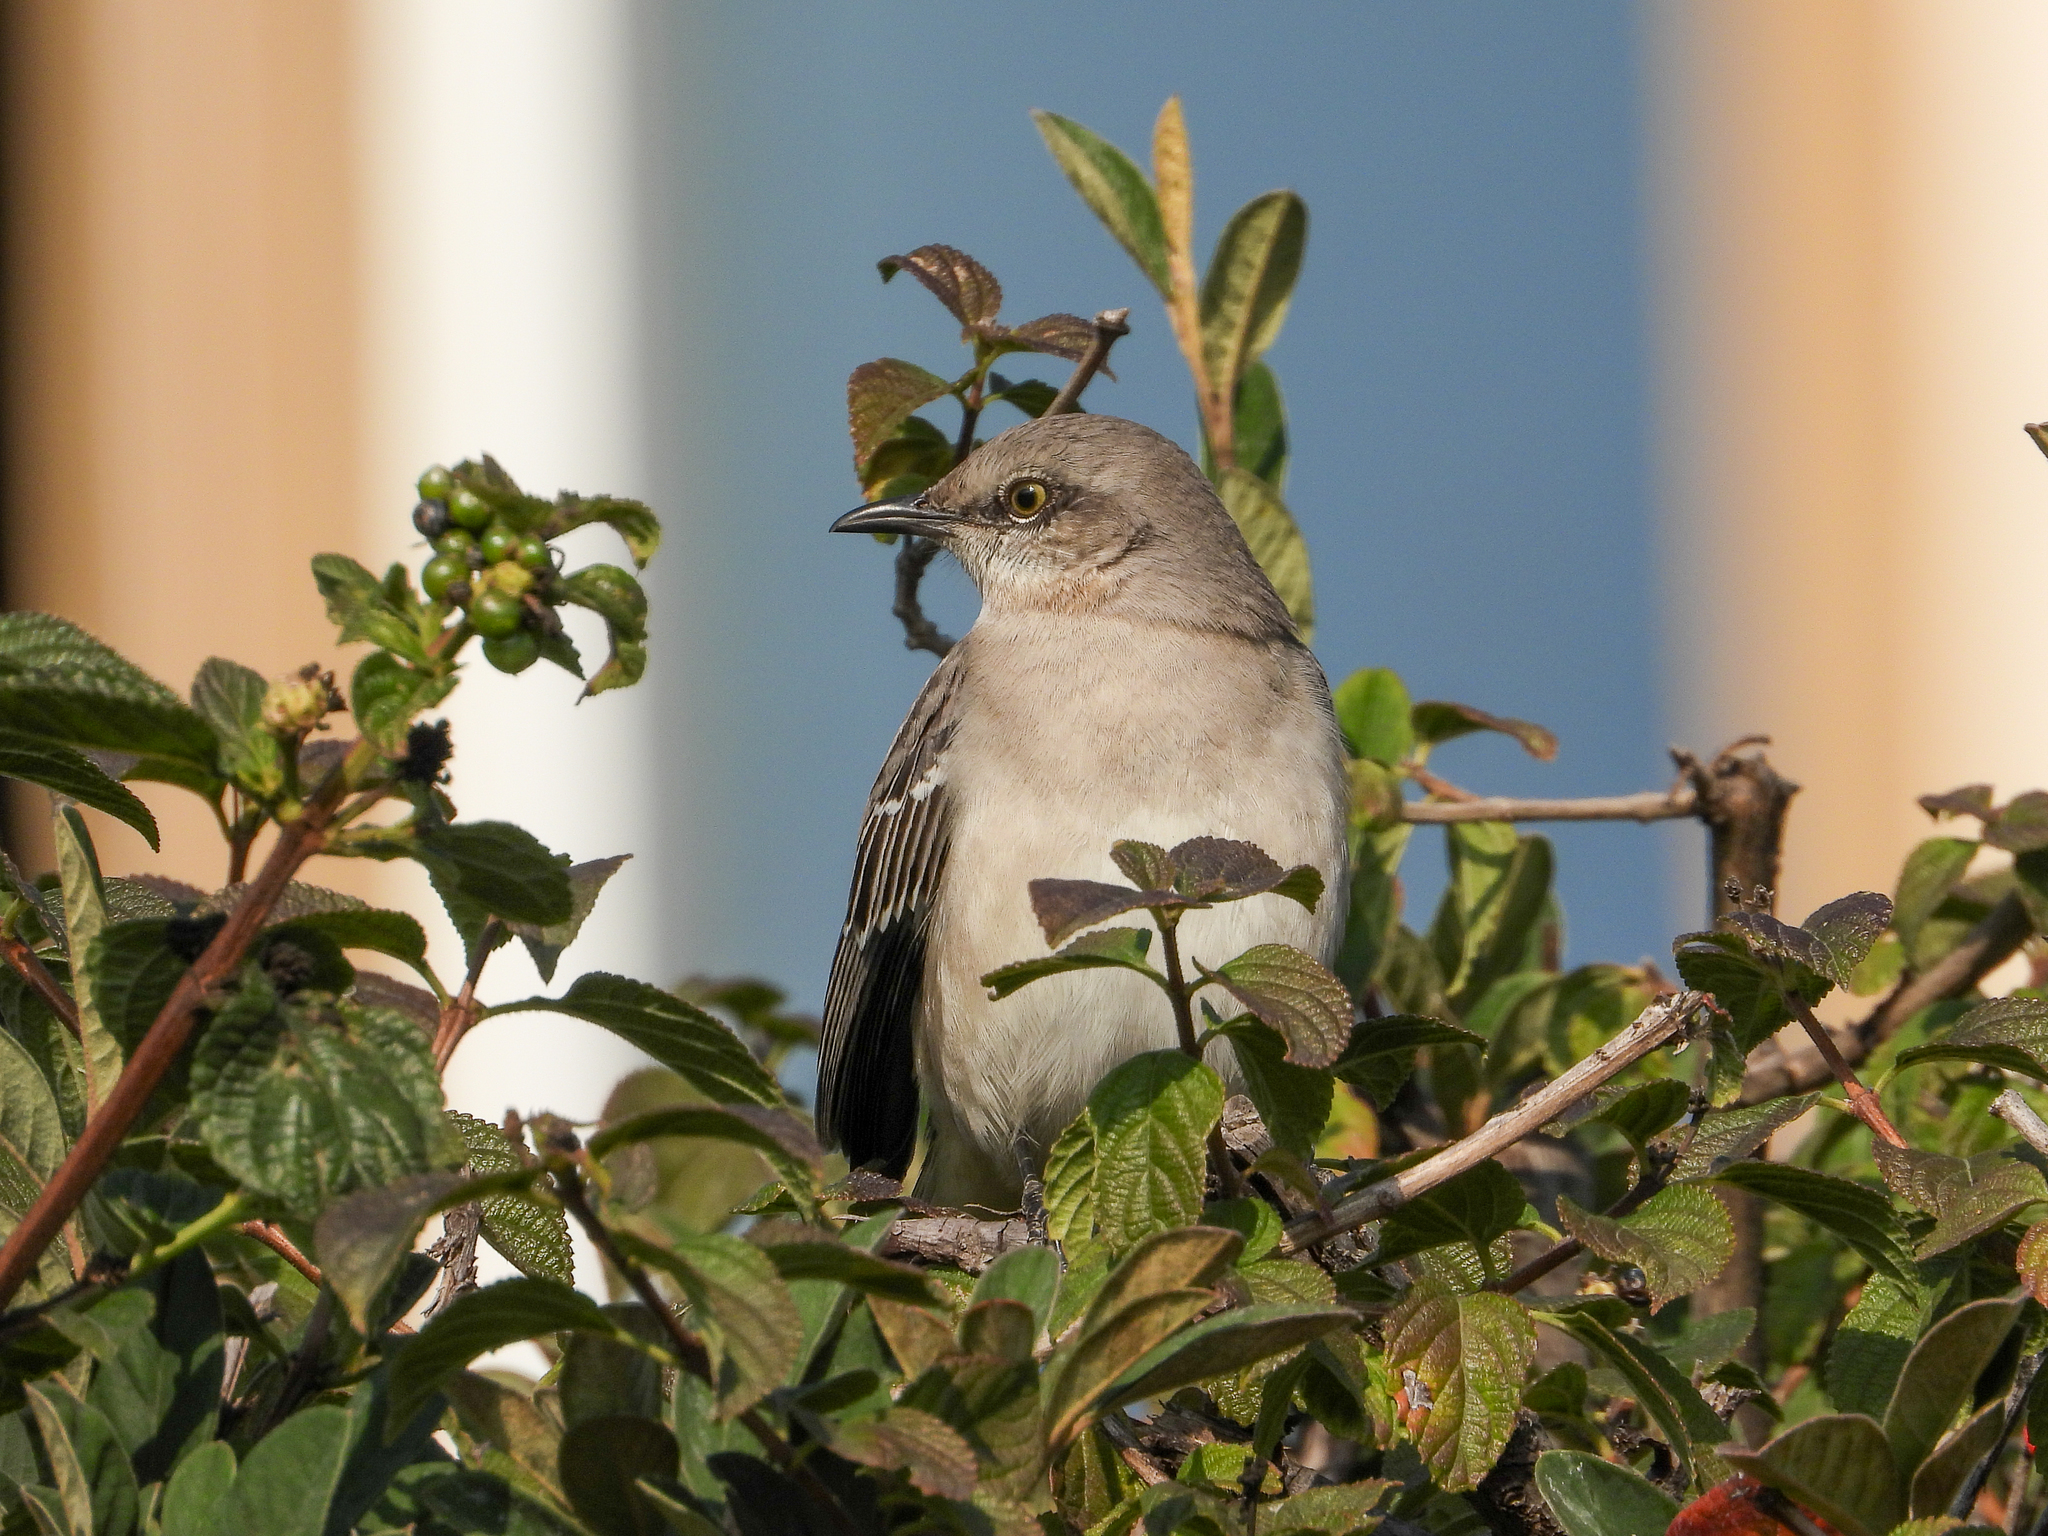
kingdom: Animalia
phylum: Chordata
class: Aves
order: Passeriformes
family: Mimidae
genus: Mimus
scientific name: Mimus polyglottos
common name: Northern mockingbird
